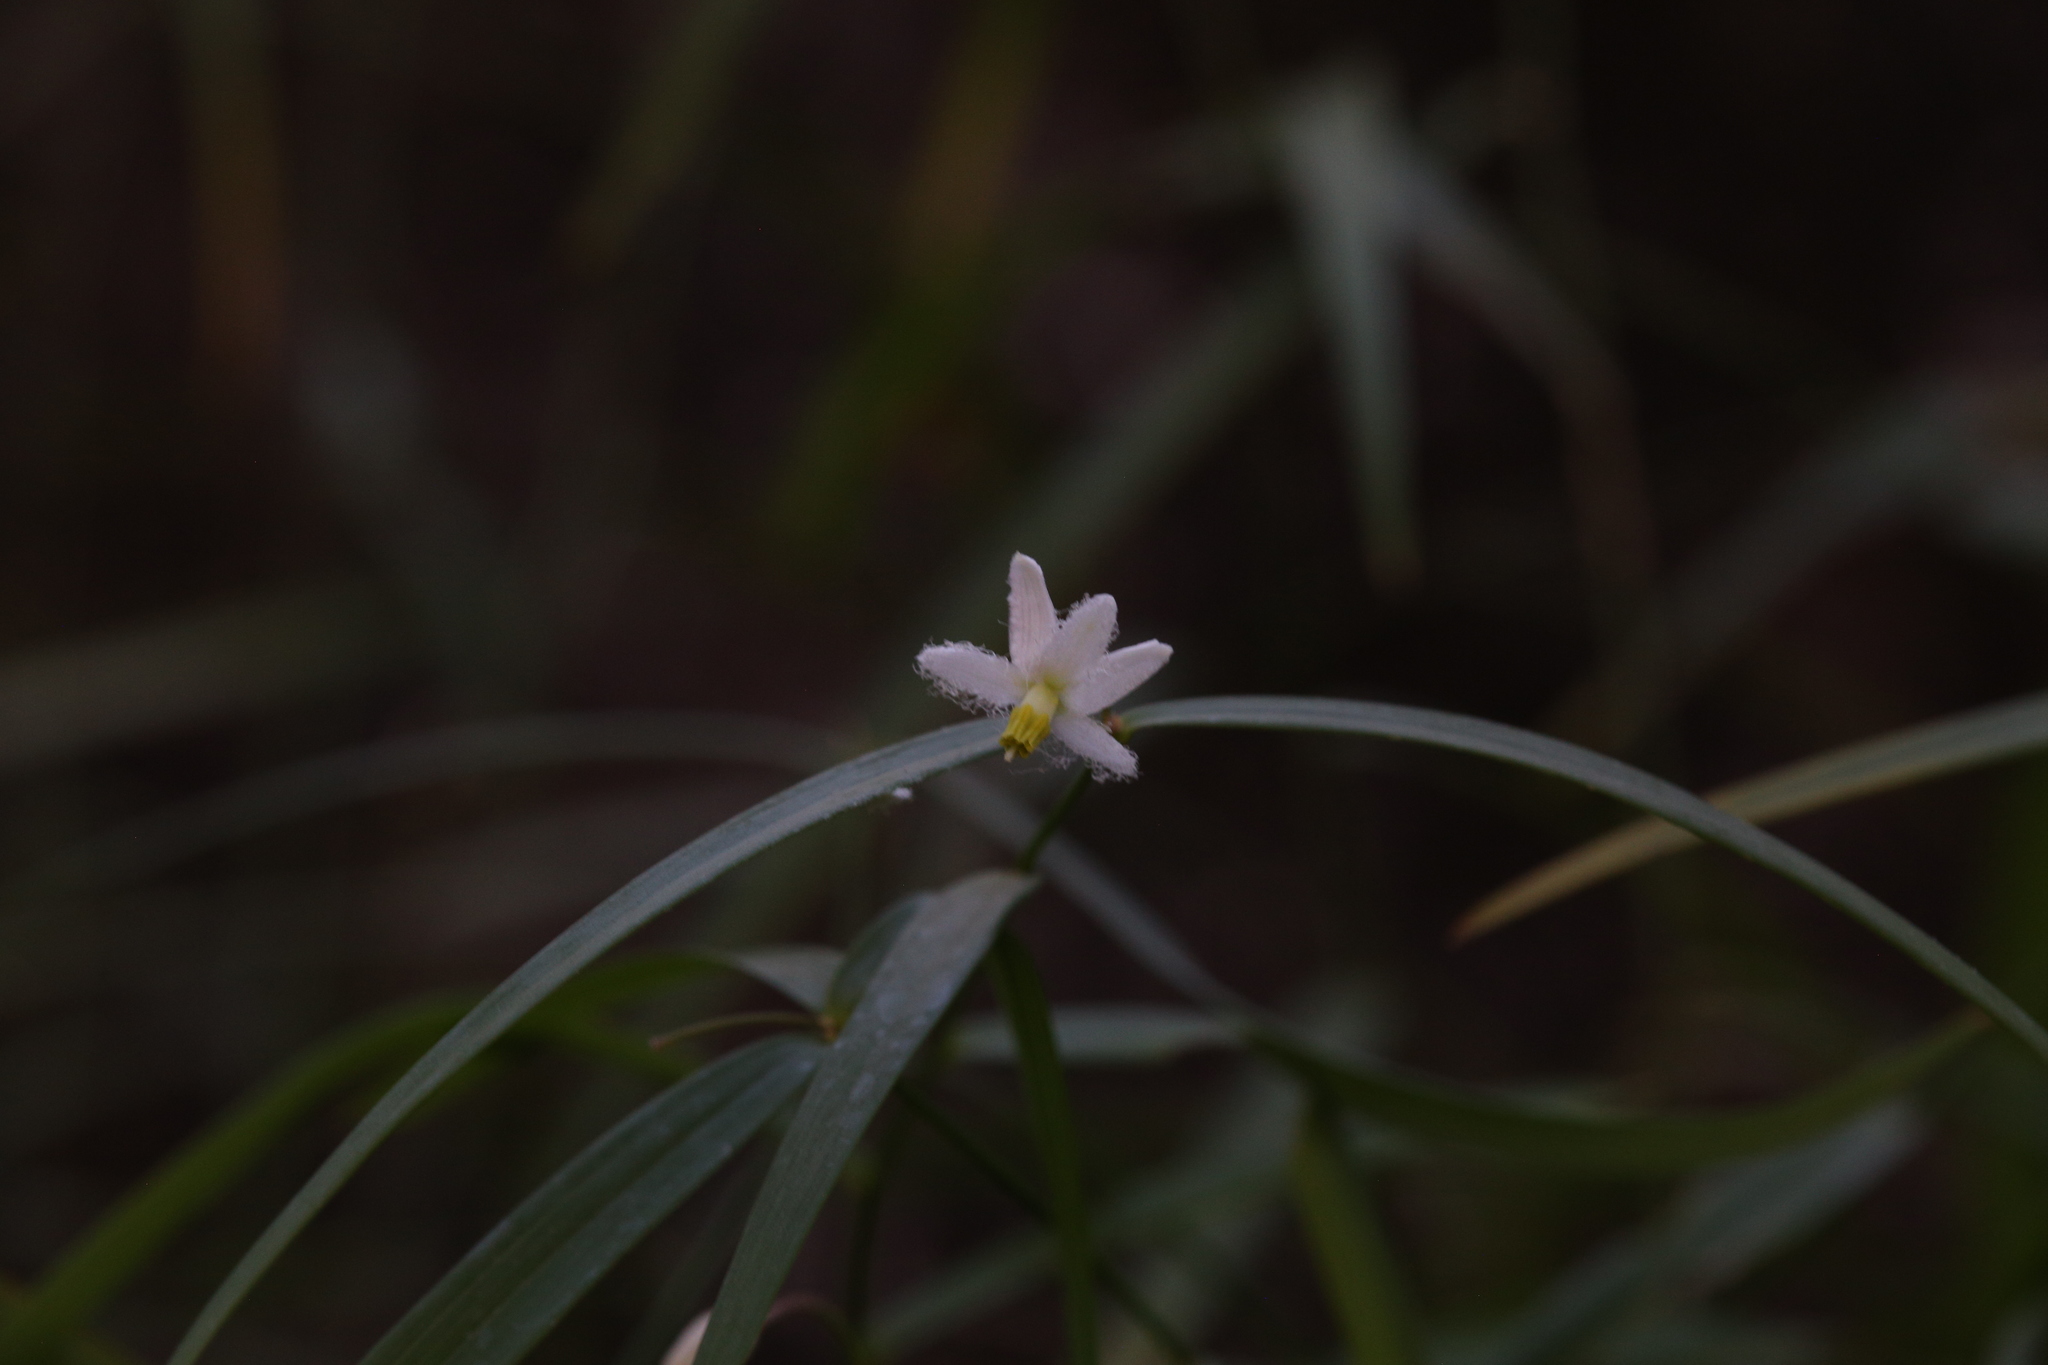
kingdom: Plantae
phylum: Tracheophyta
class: Liliopsida
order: Asparagales
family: Asparagaceae
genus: Eustrephus
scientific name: Eustrephus latifolius
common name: Orangevine
